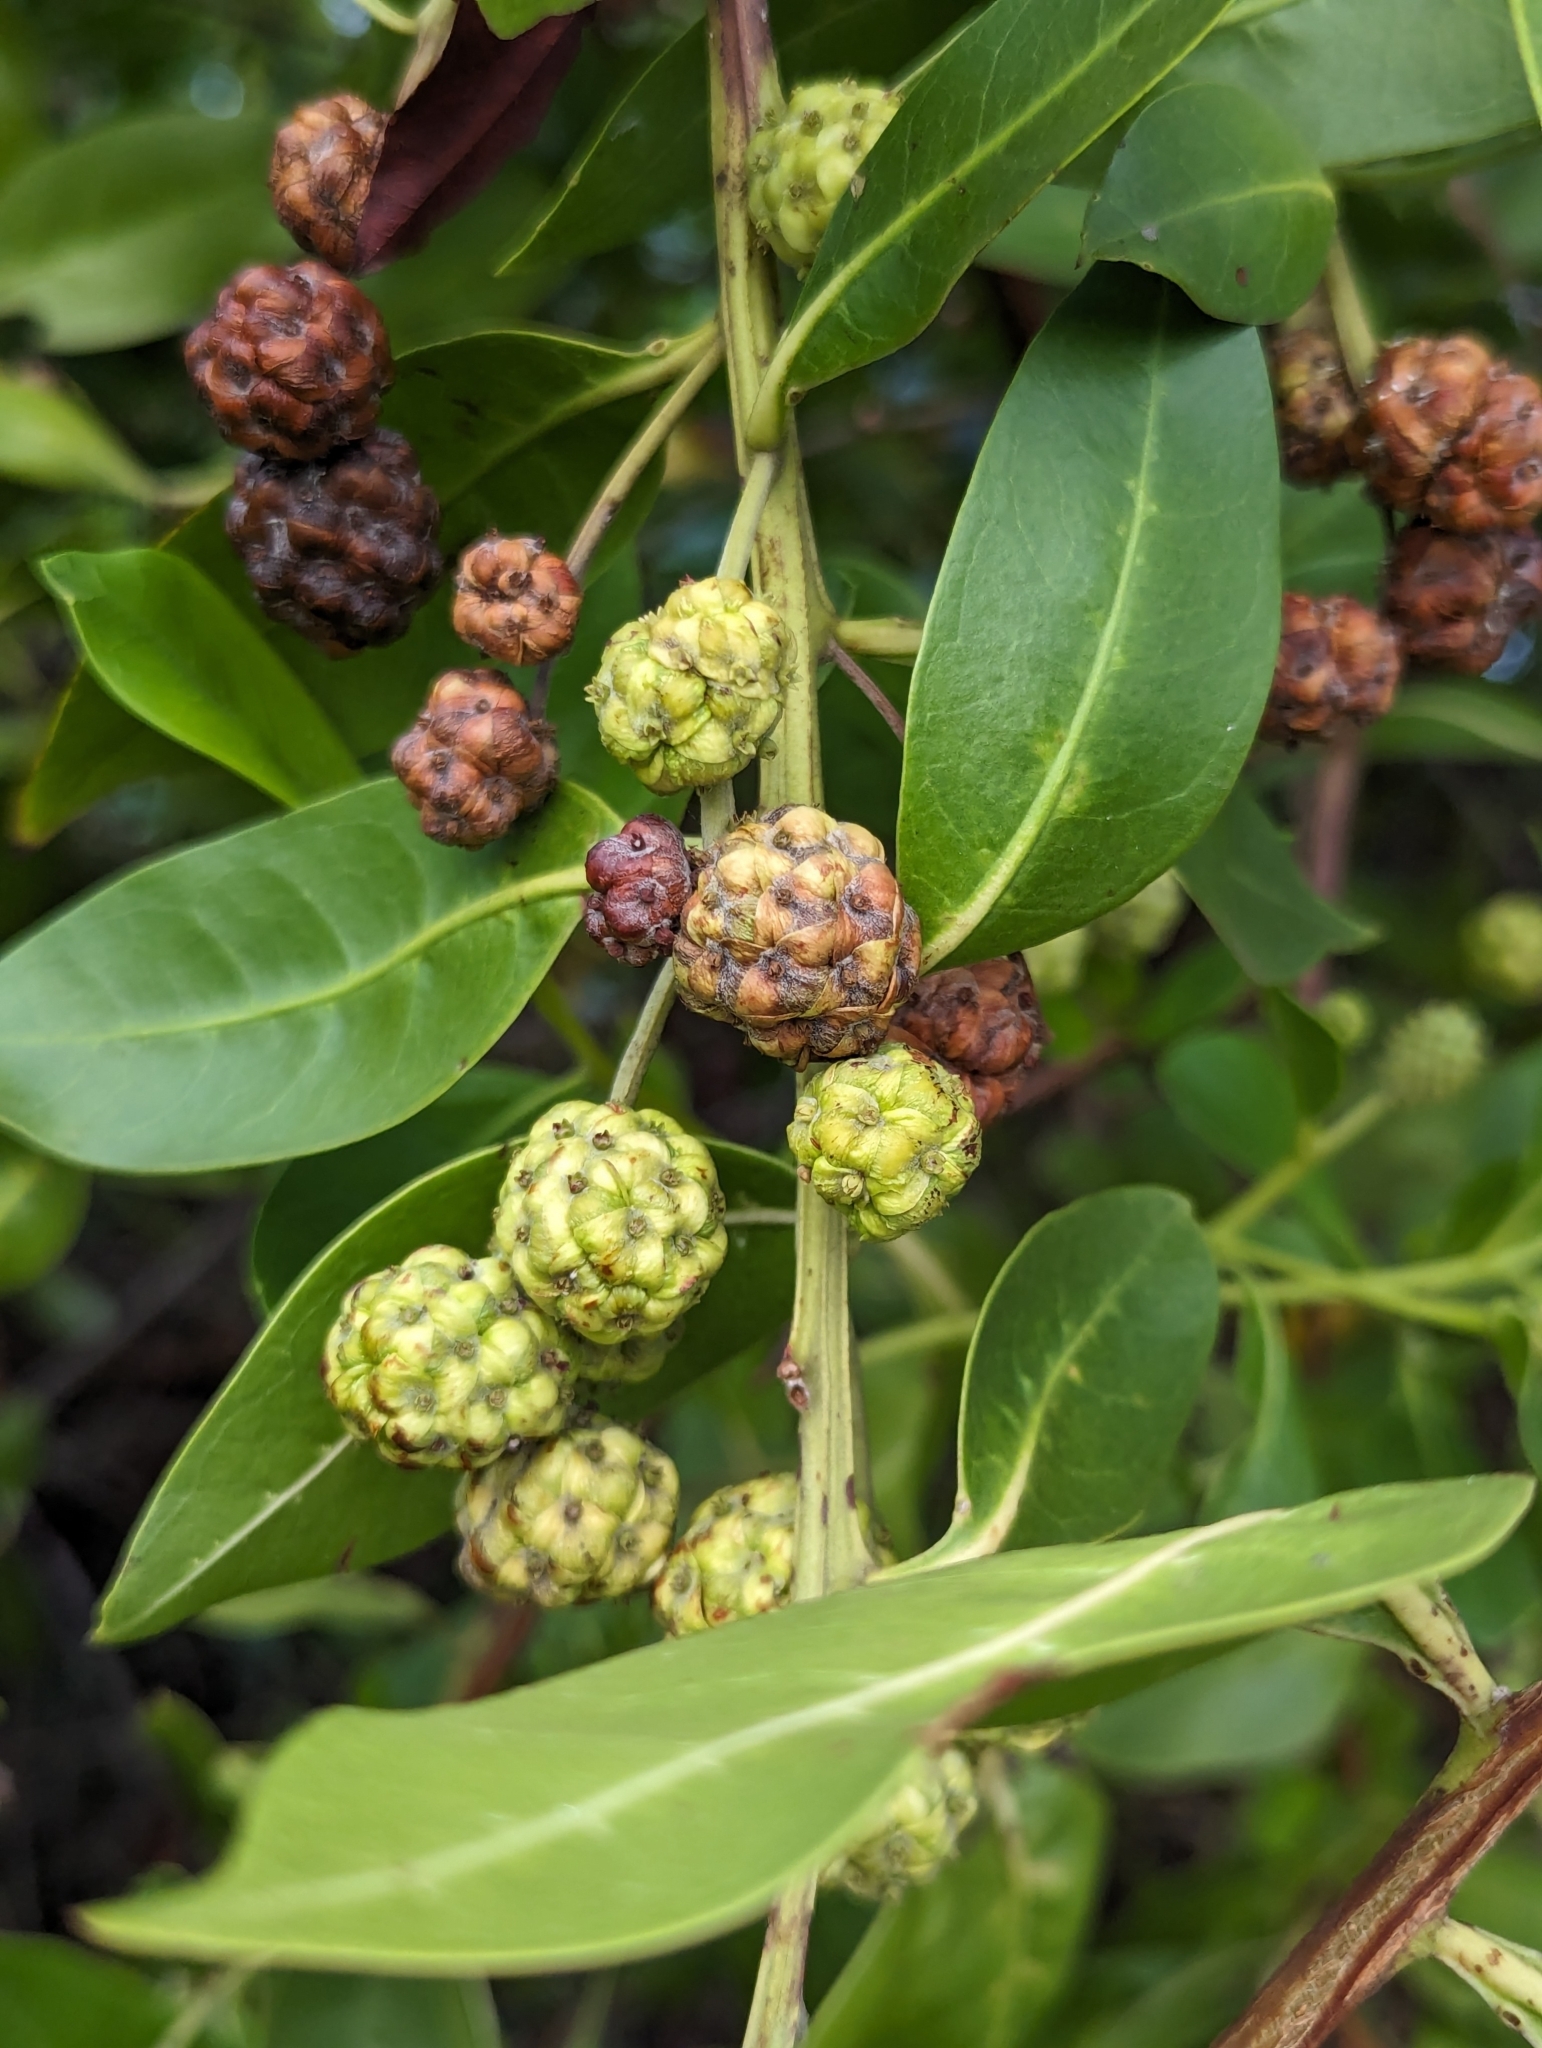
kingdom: Plantae
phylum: Tracheophyta
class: Magnoliopsida
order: Myrtales
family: Combretaceae
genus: Conocarpus
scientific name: Conocarpus erectus
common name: Button mangrove
